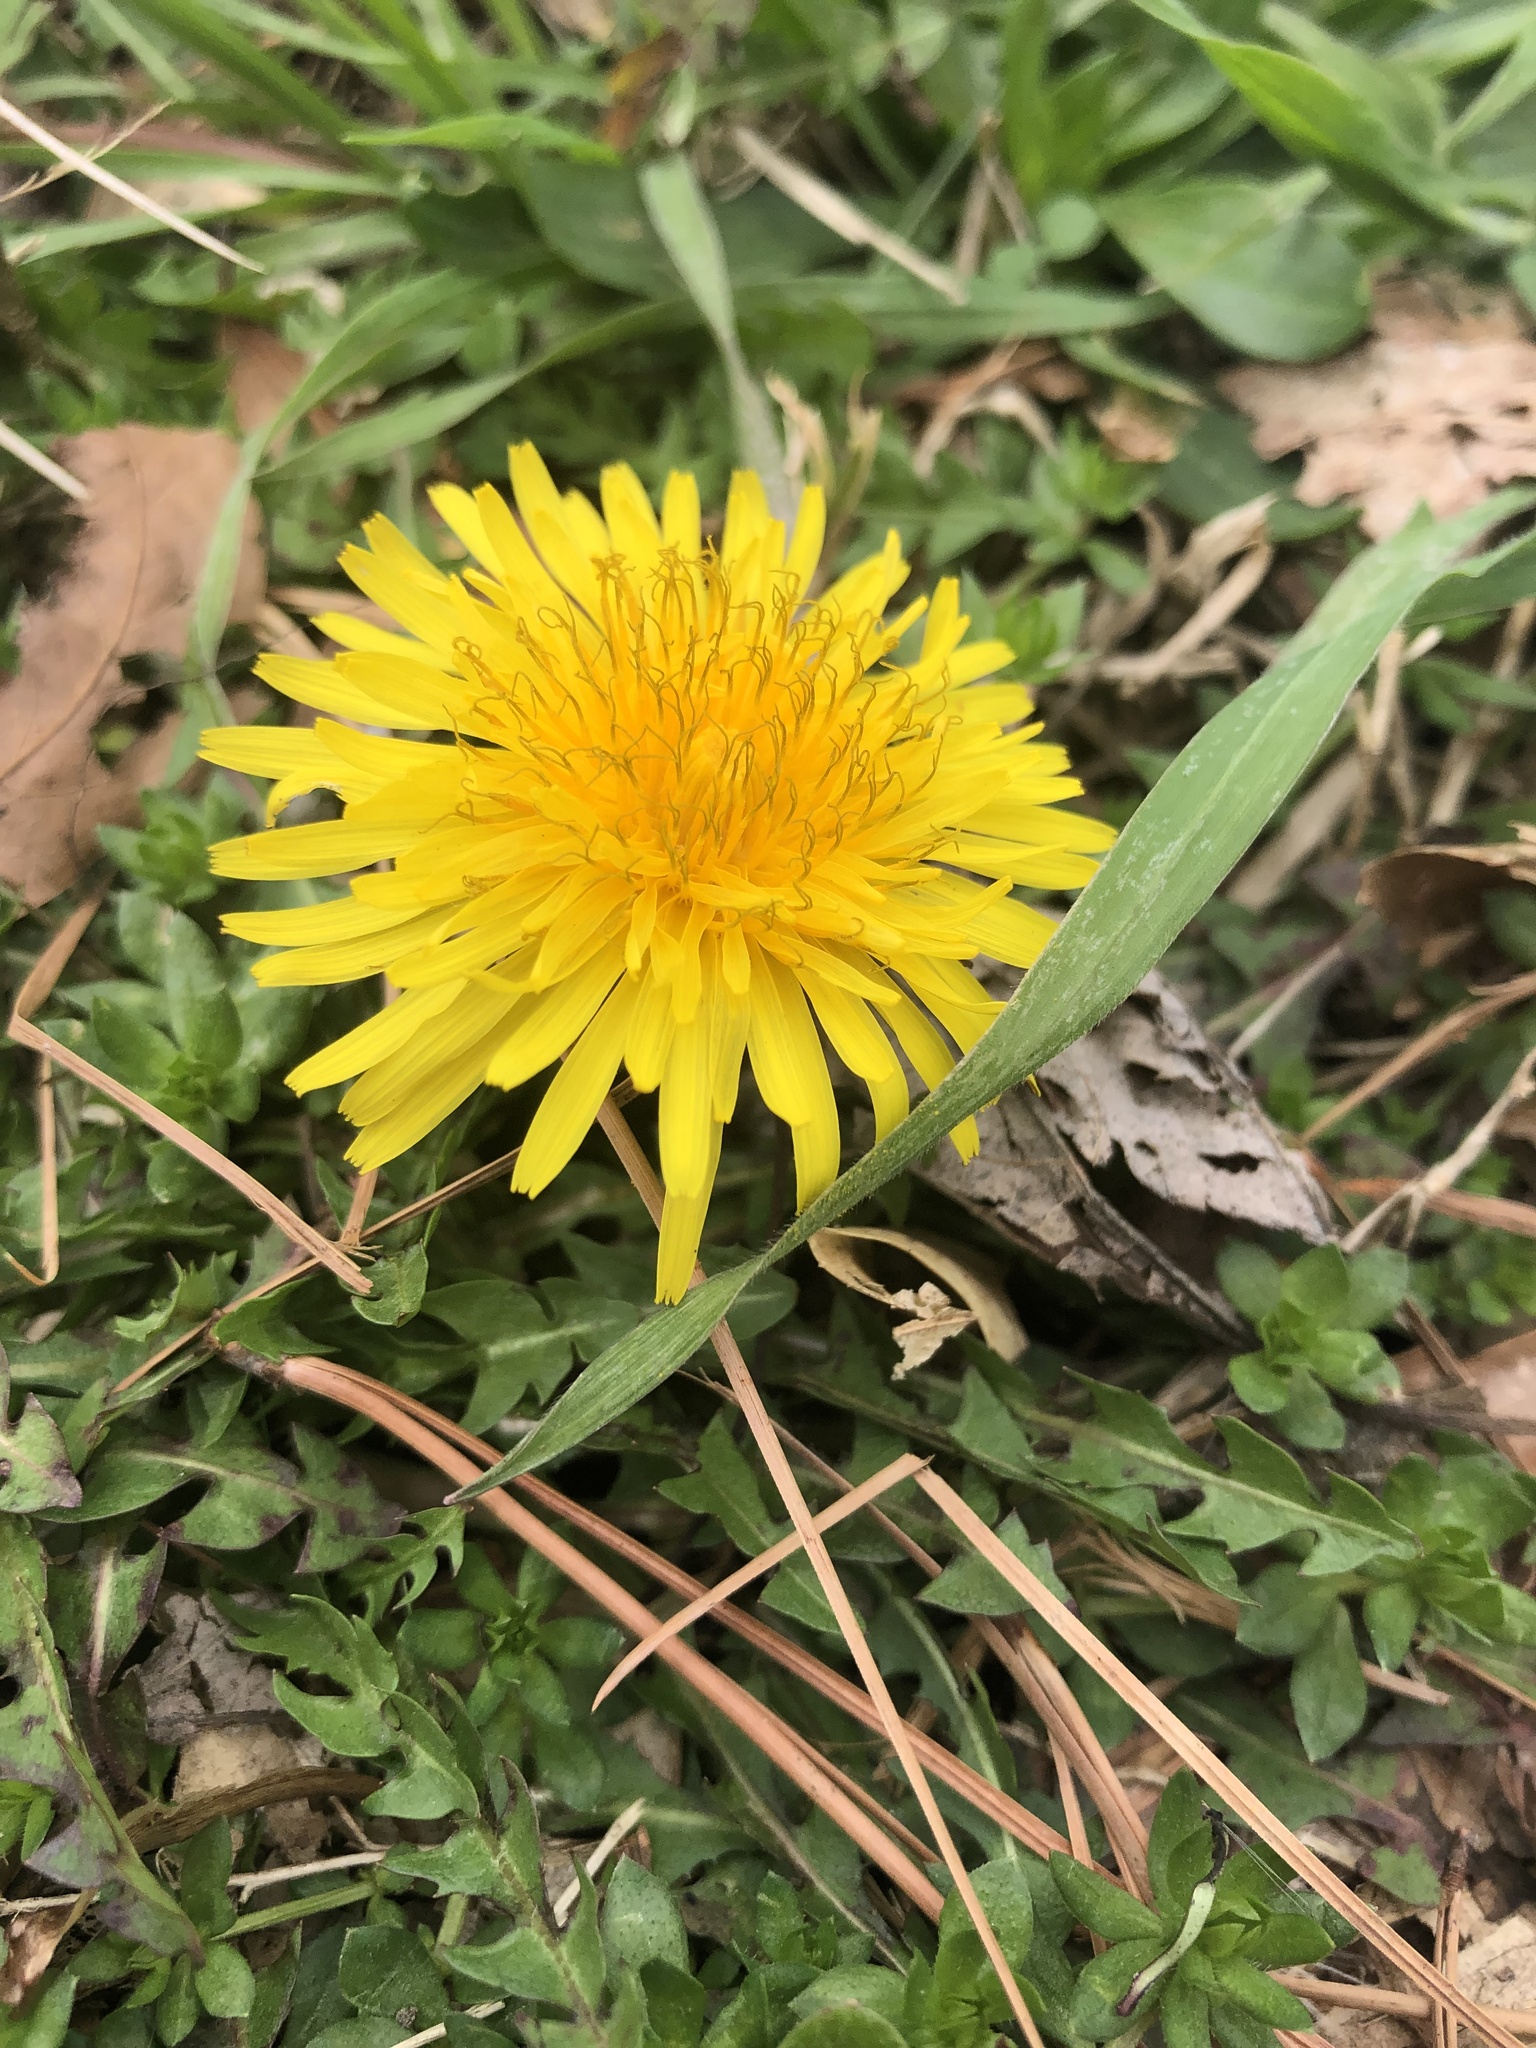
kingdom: Plantae
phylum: Tracheophyta
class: Magnoliopsida
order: Asterales
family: Asteraceae
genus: Taraxacum
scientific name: Taraxacum officinale
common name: Common dandelion
